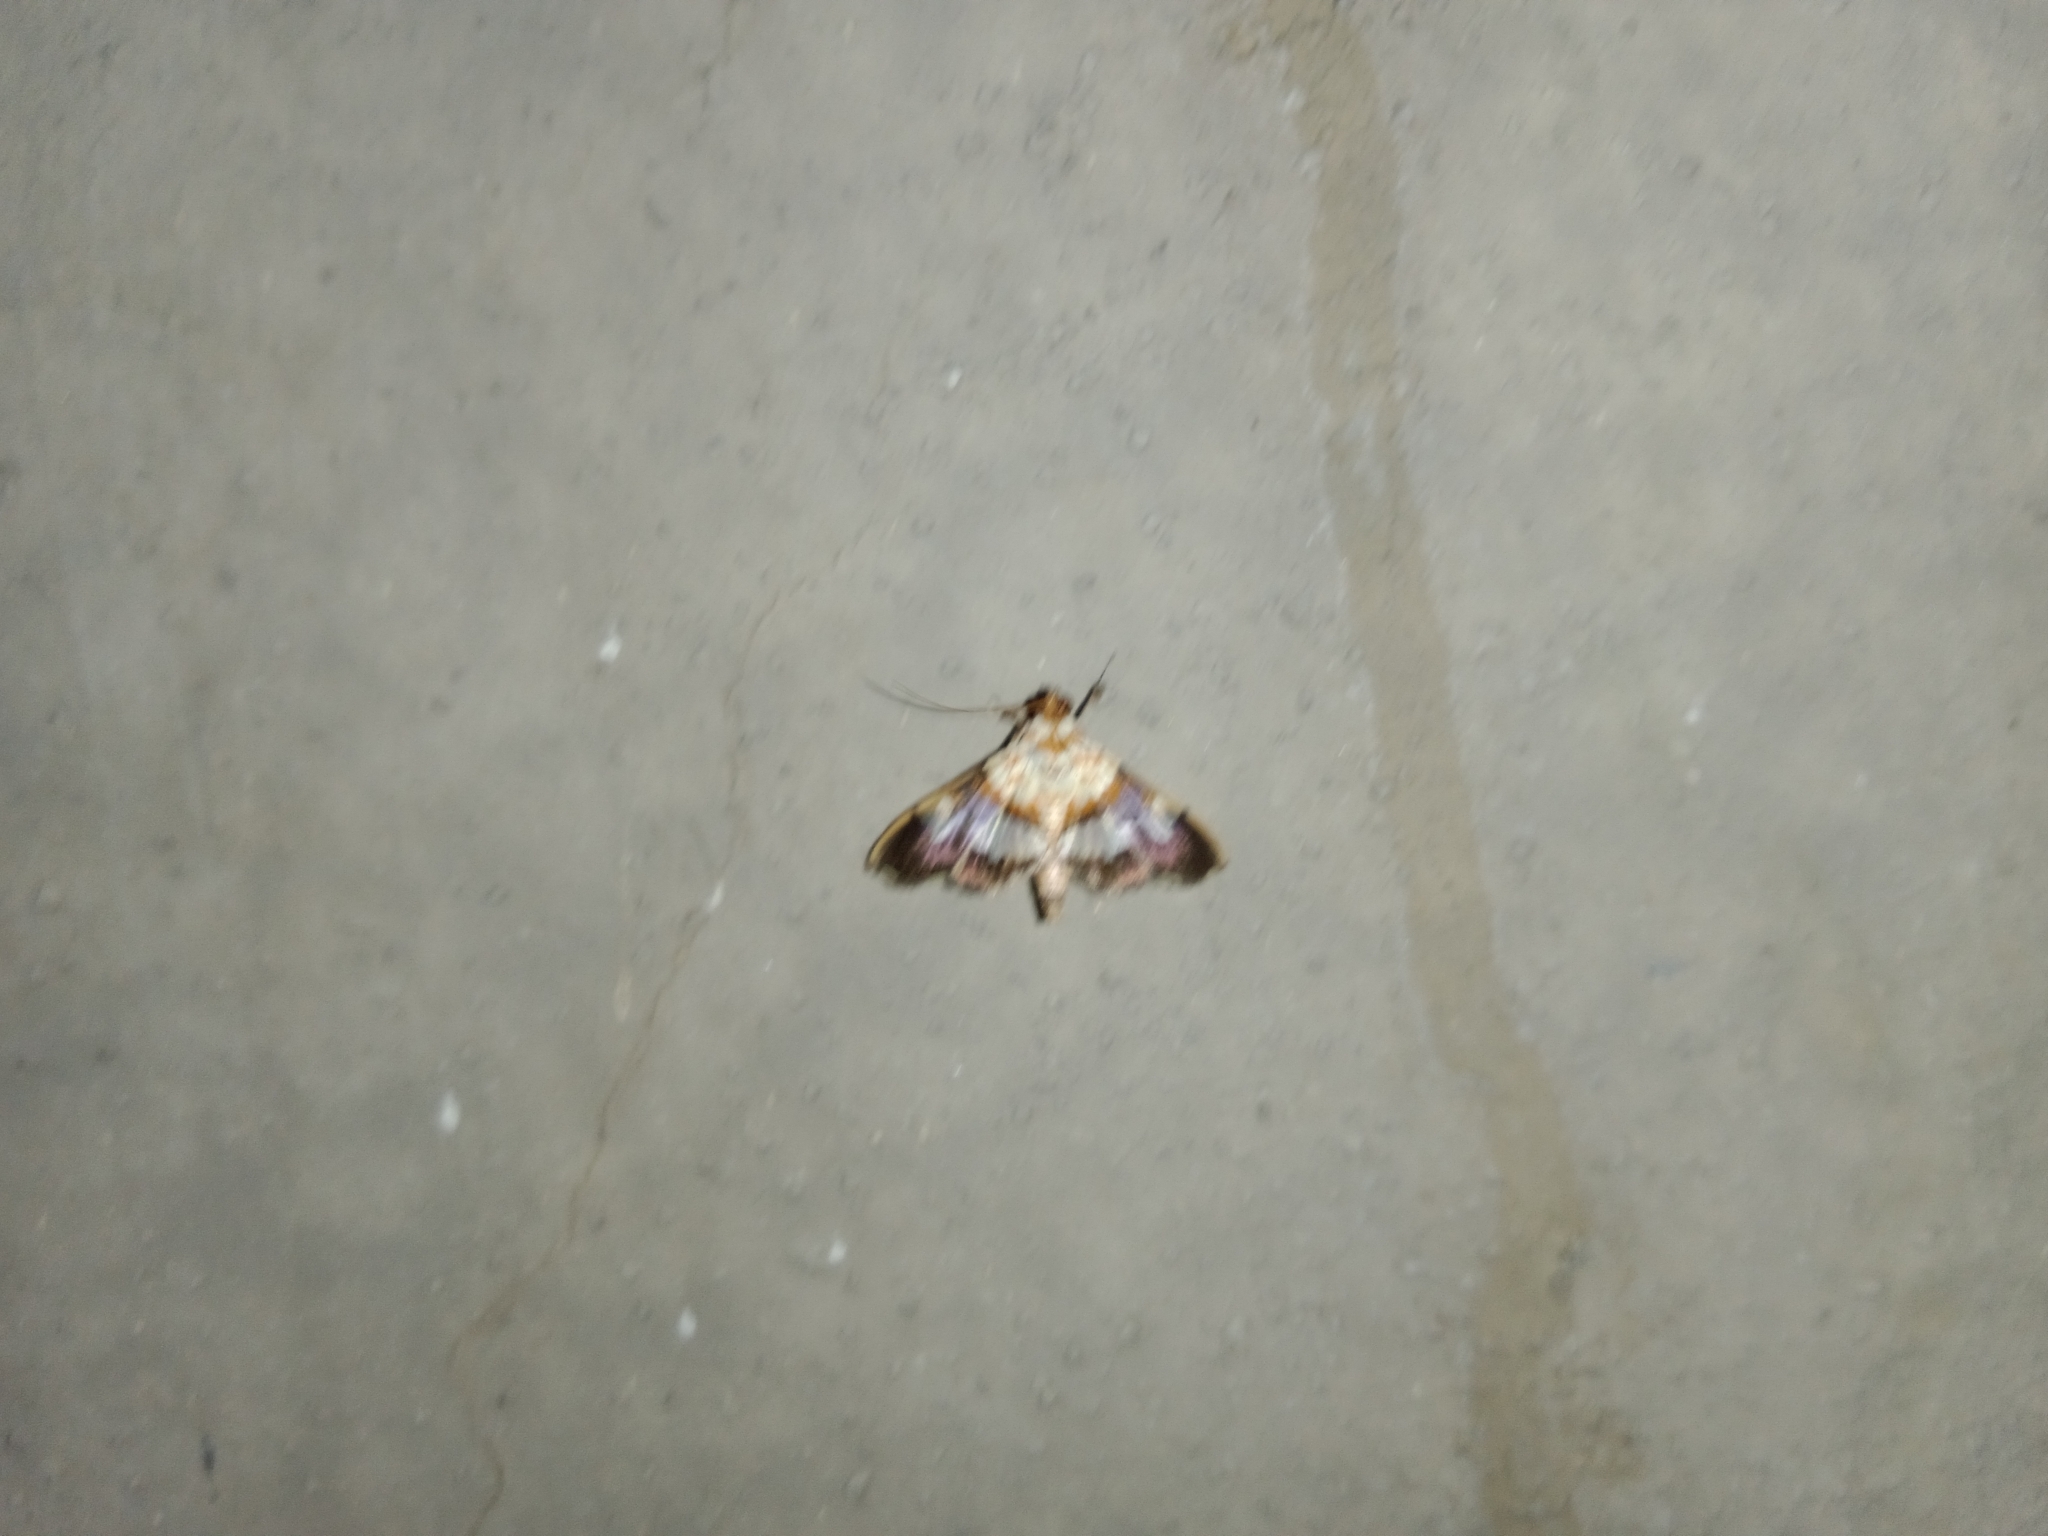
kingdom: Animalia
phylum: Arthropoda
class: Insecta
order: Lepidoptera
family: Crambidae
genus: Aetholix
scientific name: Aetholix flavibasalis
